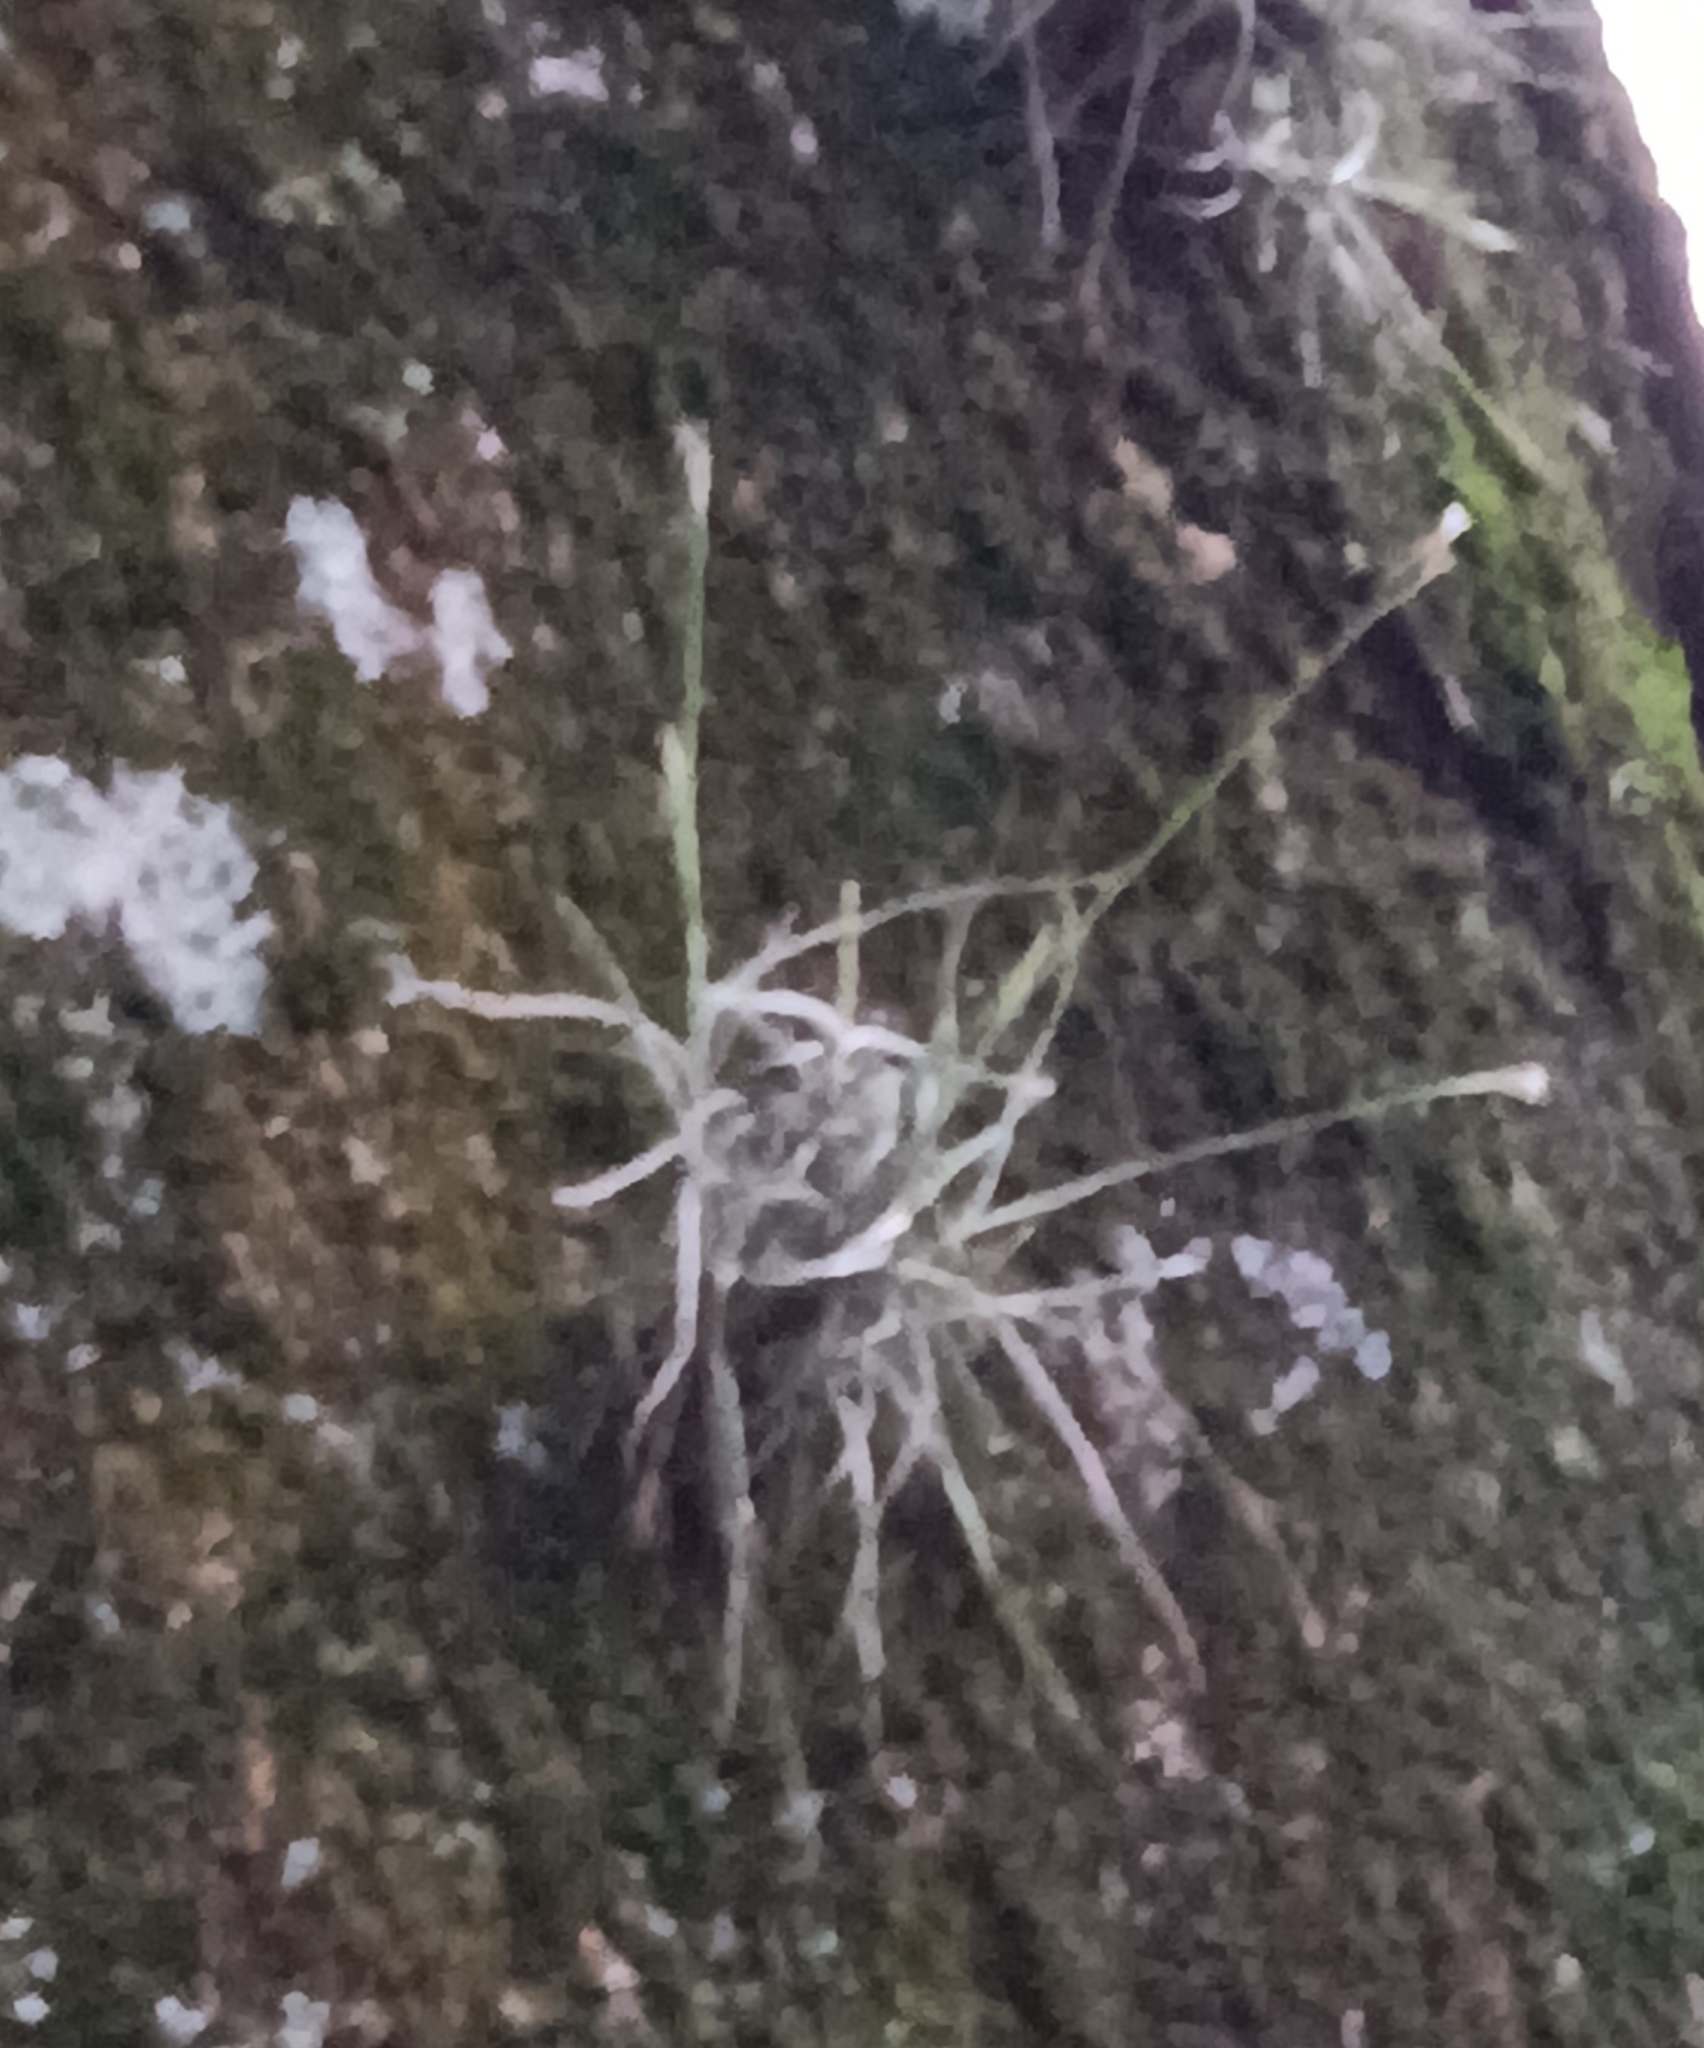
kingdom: Plantae
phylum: Tracheophyta
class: Liliopsida
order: Poales
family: Bromeliaceae
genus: Tillandsia
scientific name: Tillandsia recurvata
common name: Small ballmoss
